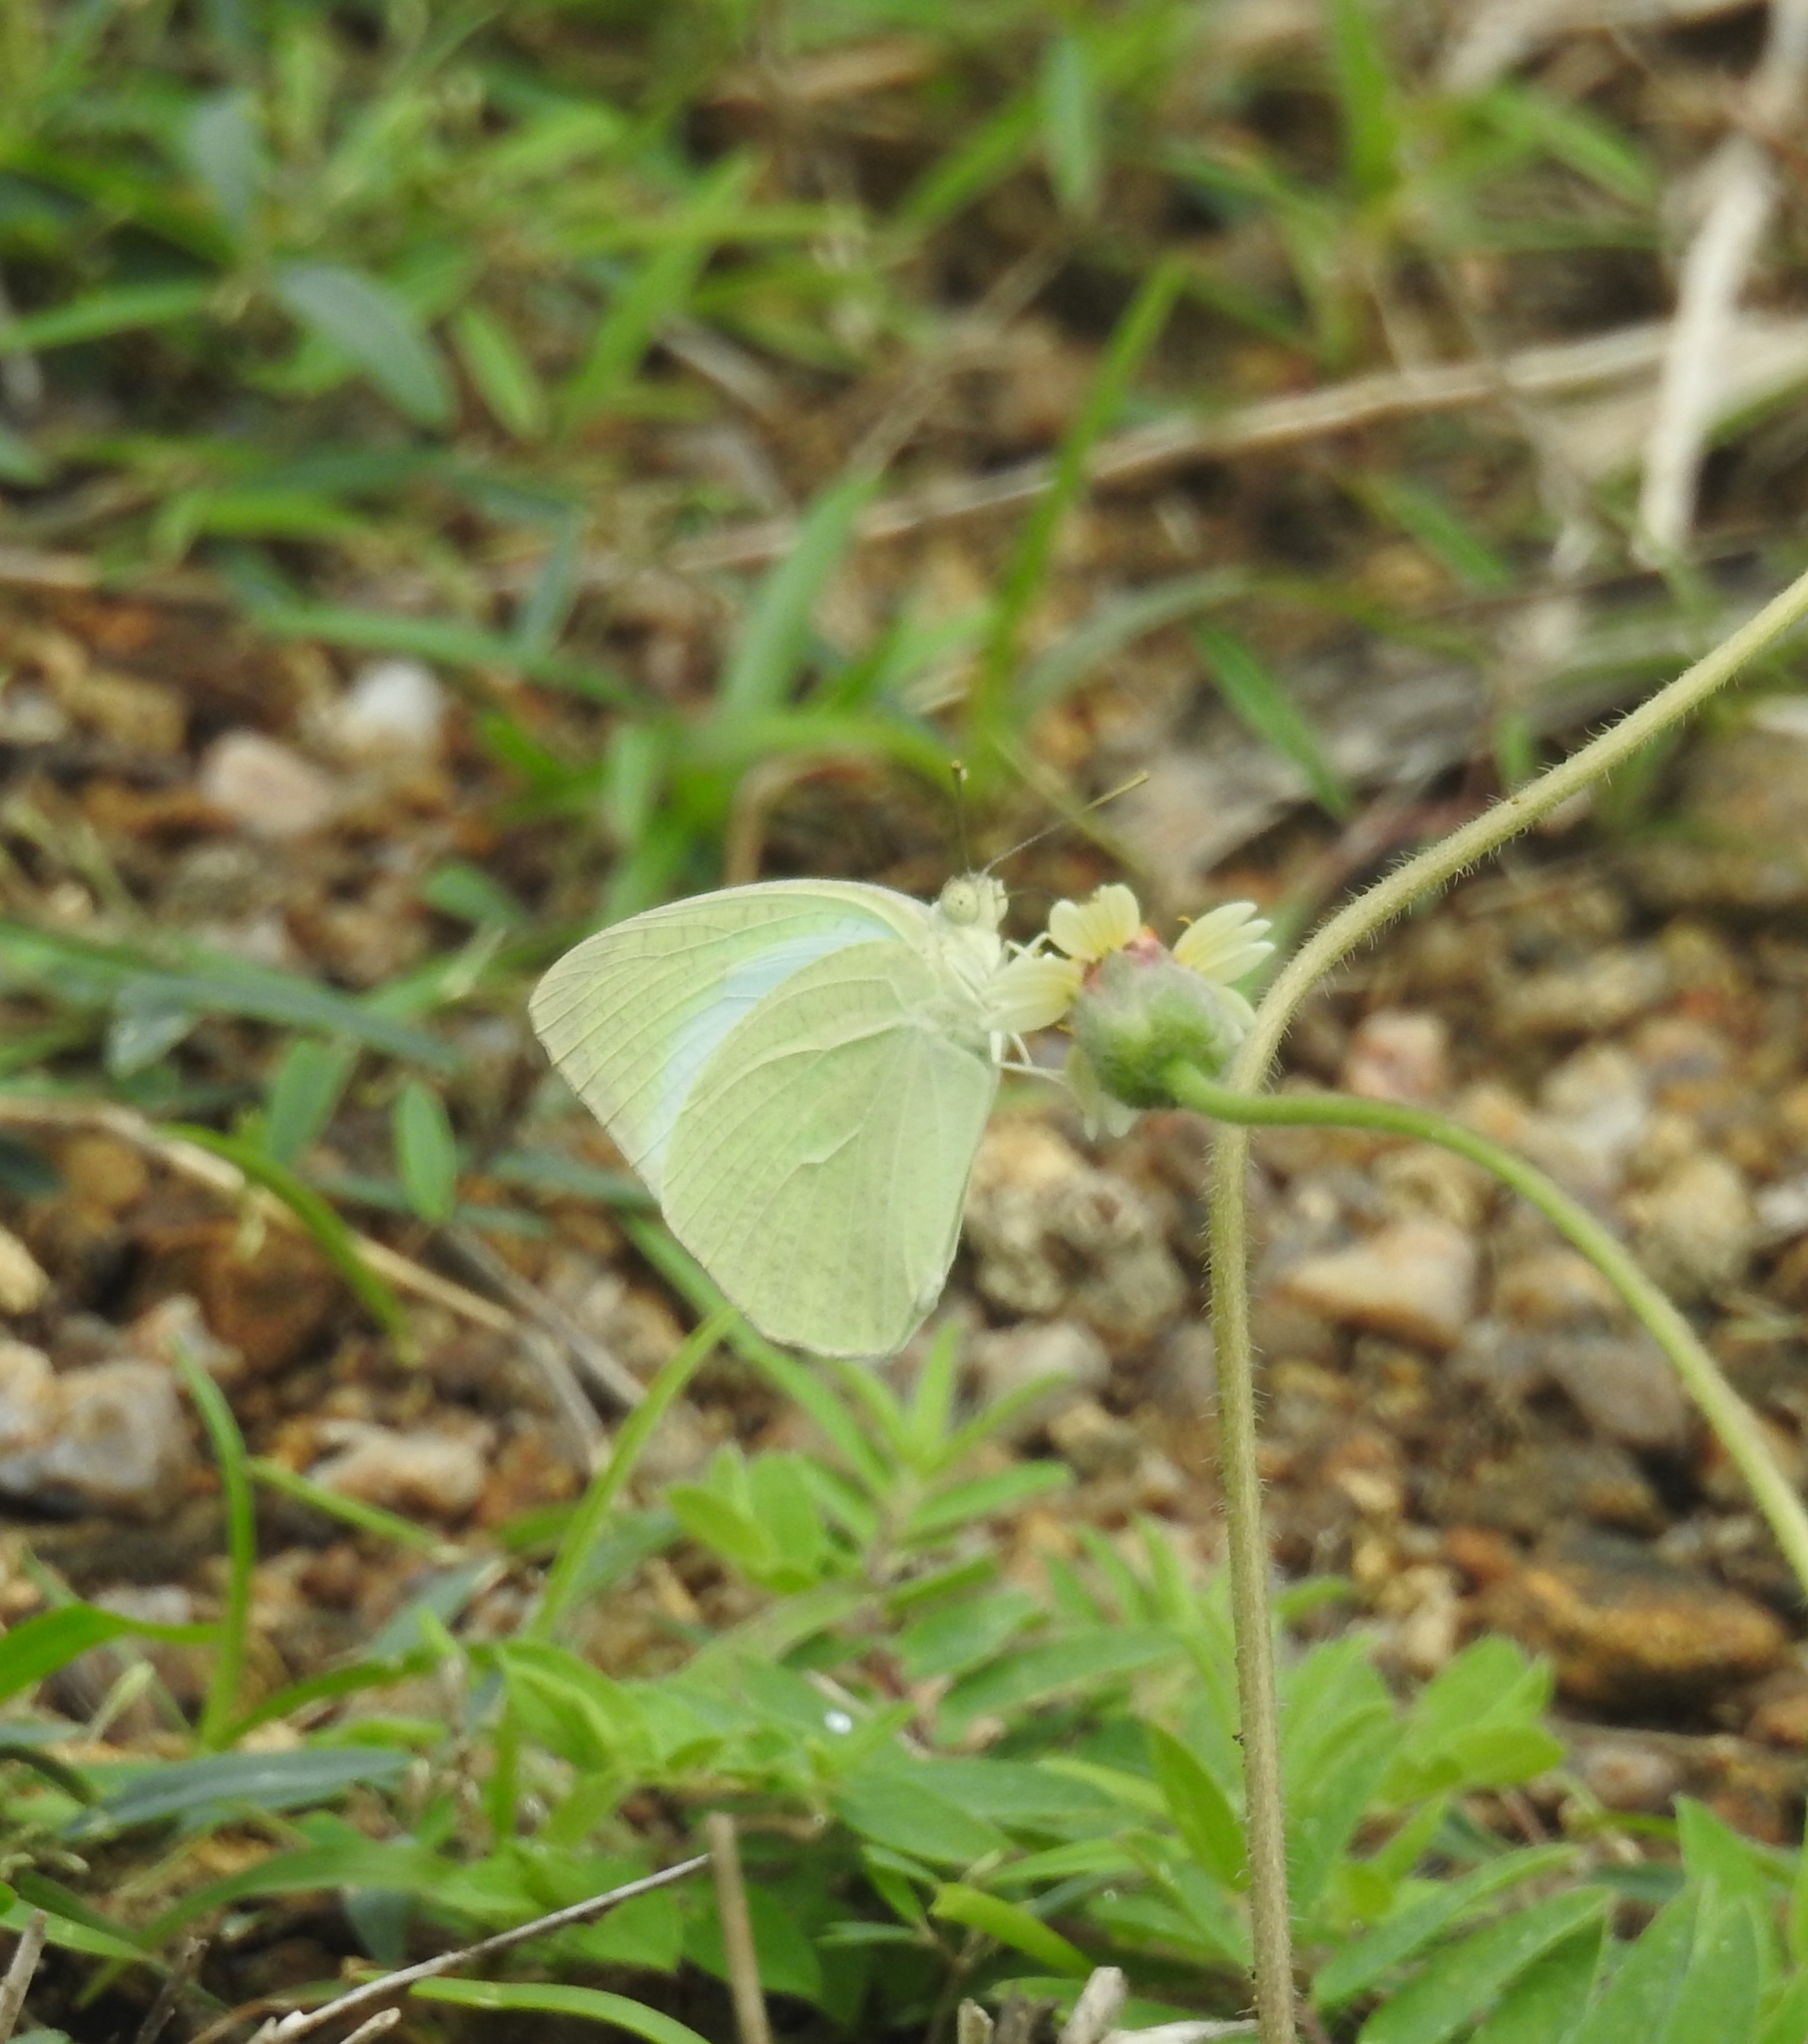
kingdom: Animalia
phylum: Arthropoda
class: Insecta
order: Lepidoptera
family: Pieridae
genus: Catopsilia
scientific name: Catopsilia pyranthe
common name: Mottled emigrant
